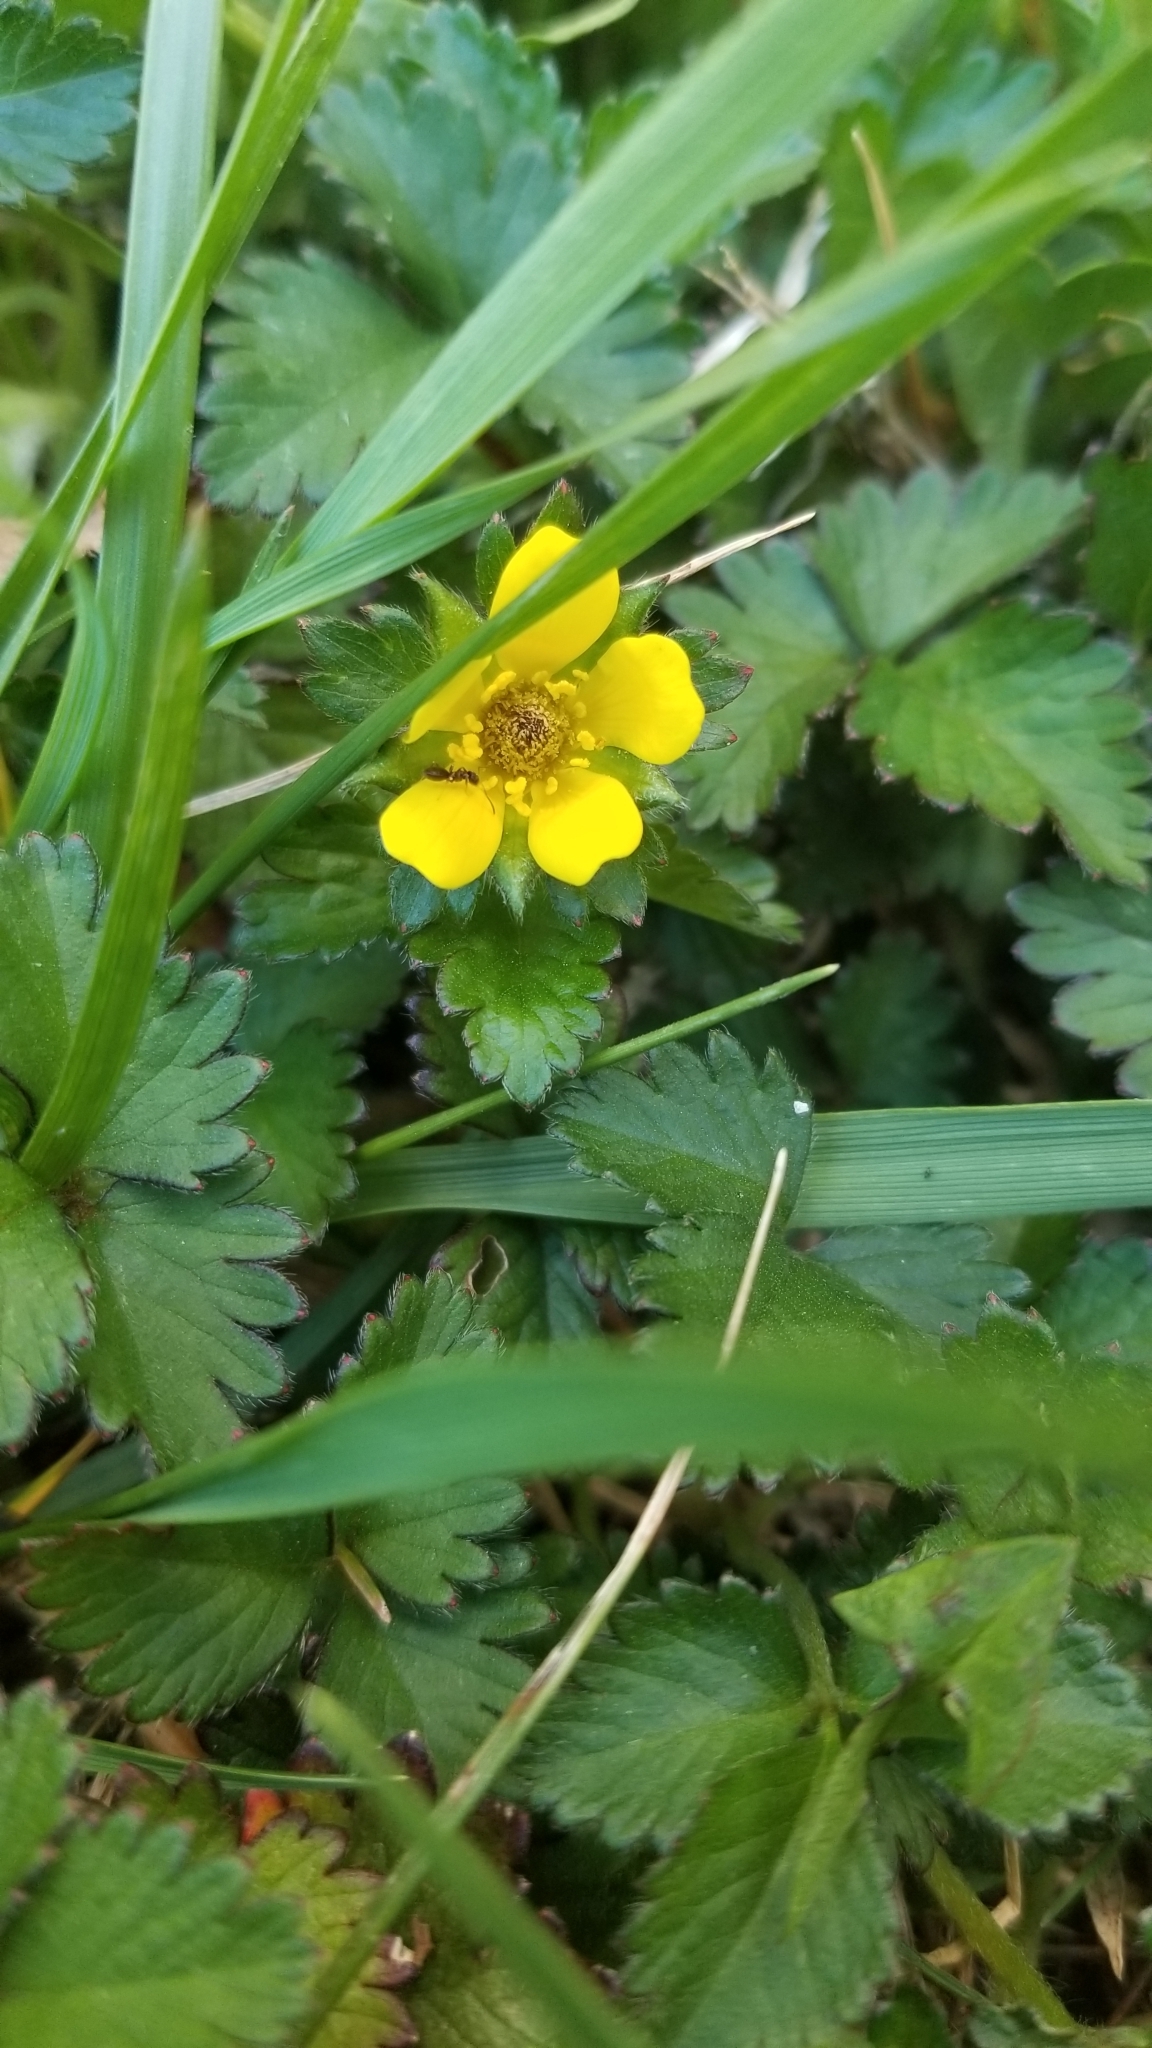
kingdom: Plantae
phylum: Tracheophyta
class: Magnoliopsida
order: Rosales
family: Rosaceae
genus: Potentilla
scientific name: Potentilla indica
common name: Yellow-flowered strawberry
